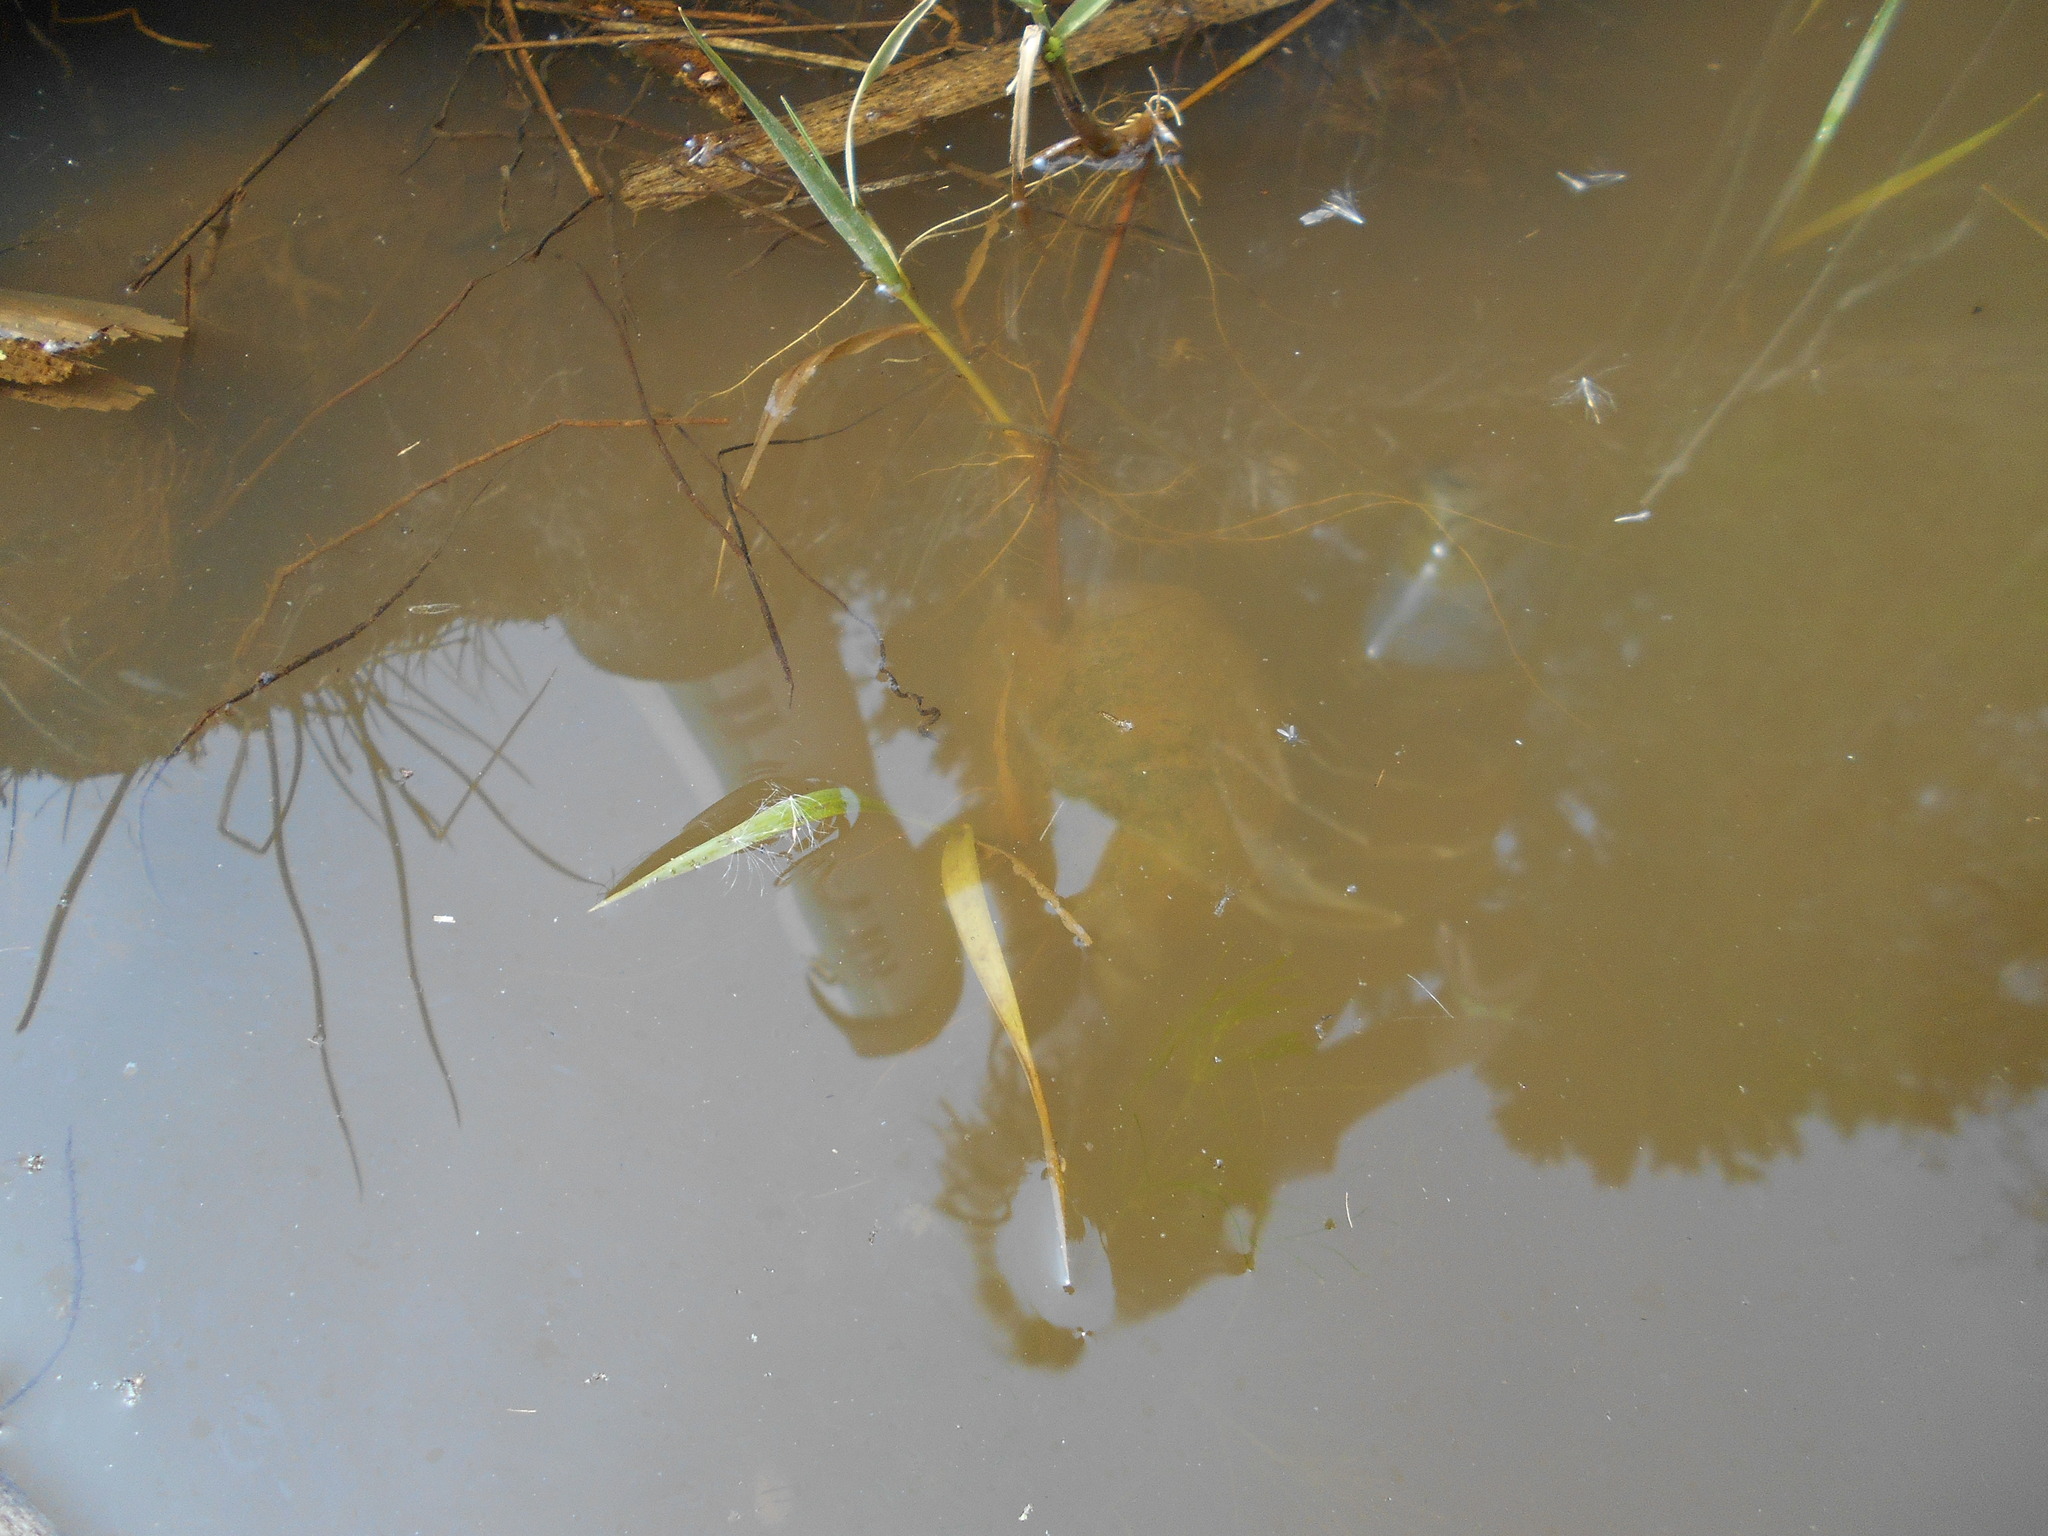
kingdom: Animalia
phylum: Chordata
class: Amphibia
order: Caudata
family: Ambystomatidae
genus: Ambystoma
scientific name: Ambystoma gracile
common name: Northwestern salamander
